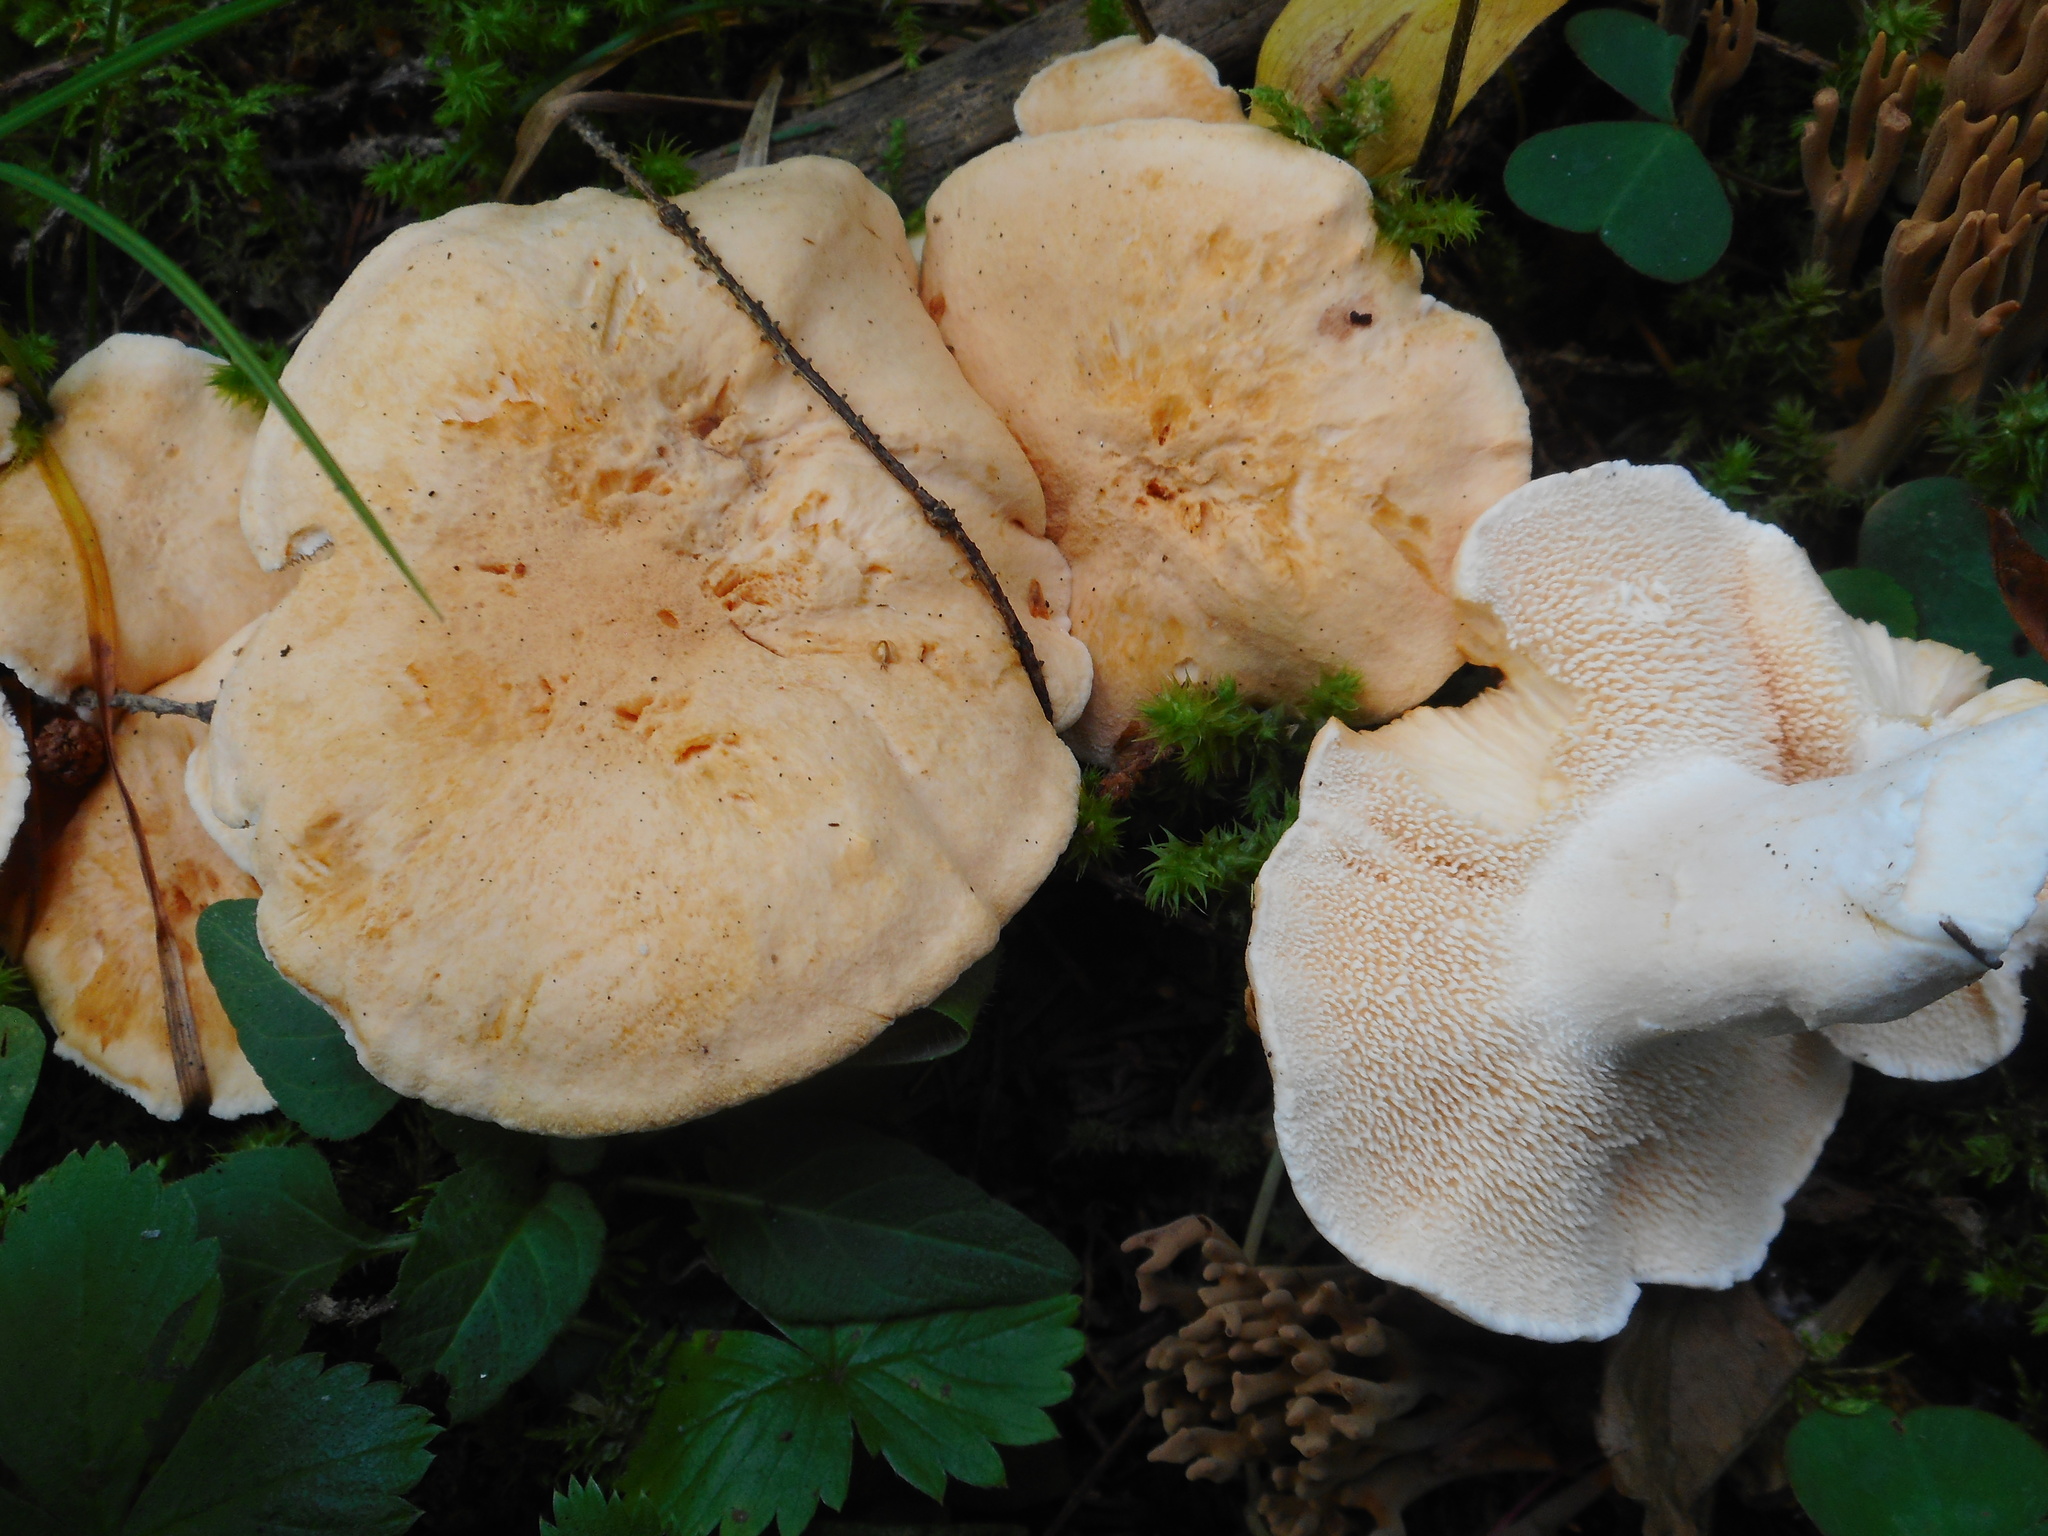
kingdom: Fungi
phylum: Basidiomycota
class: Agaricomycetes
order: Cantharellales
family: Hydnaceae
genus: Hydnum
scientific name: Hydnum repandum
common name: Wood hedgehog
